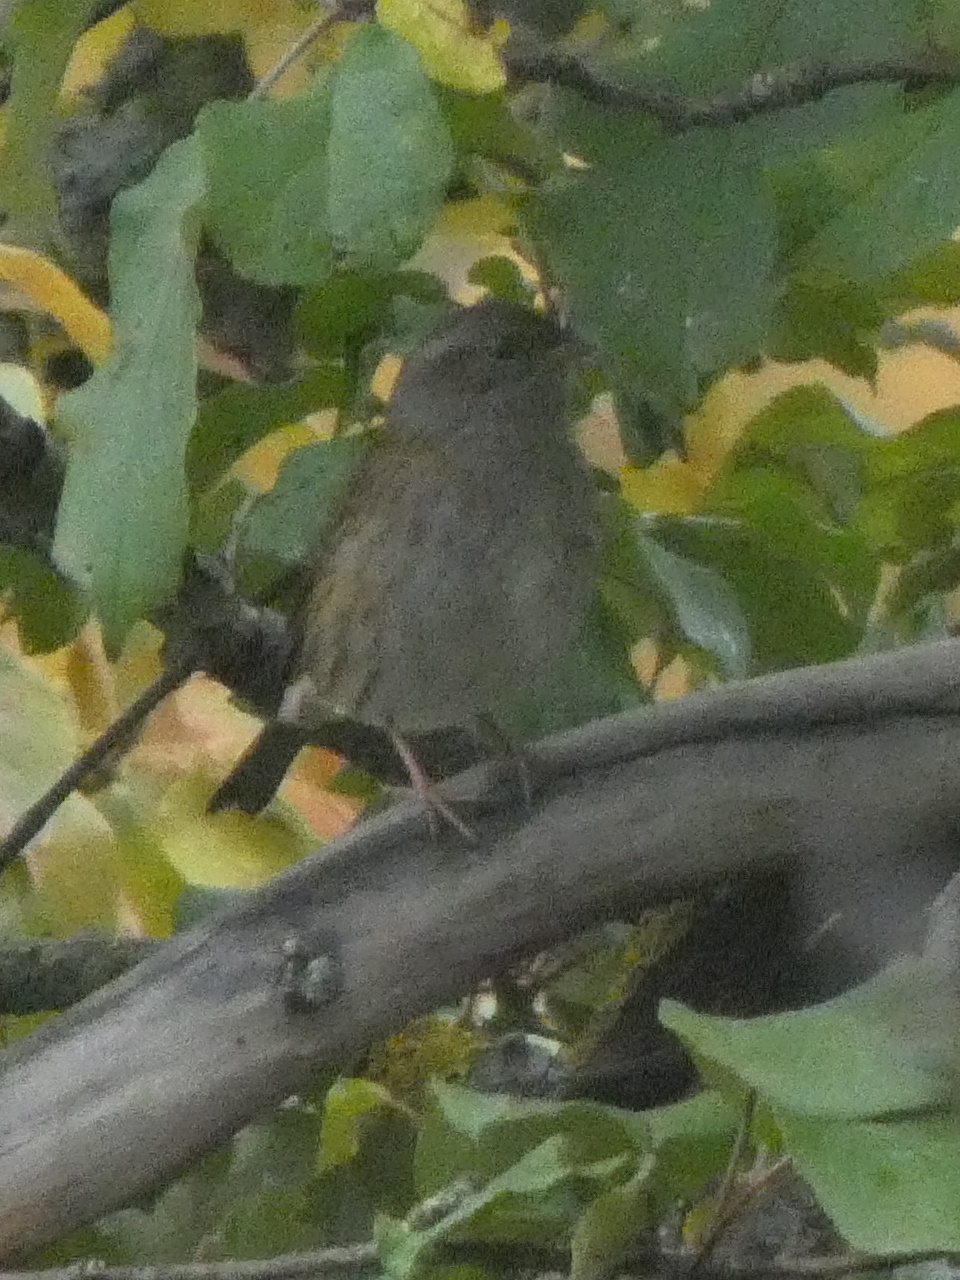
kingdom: Animalia
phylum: Chordata
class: Aves
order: Passeriformes
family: Prunellidae
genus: Prunella
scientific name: Prunella modularis
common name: Dunnock
